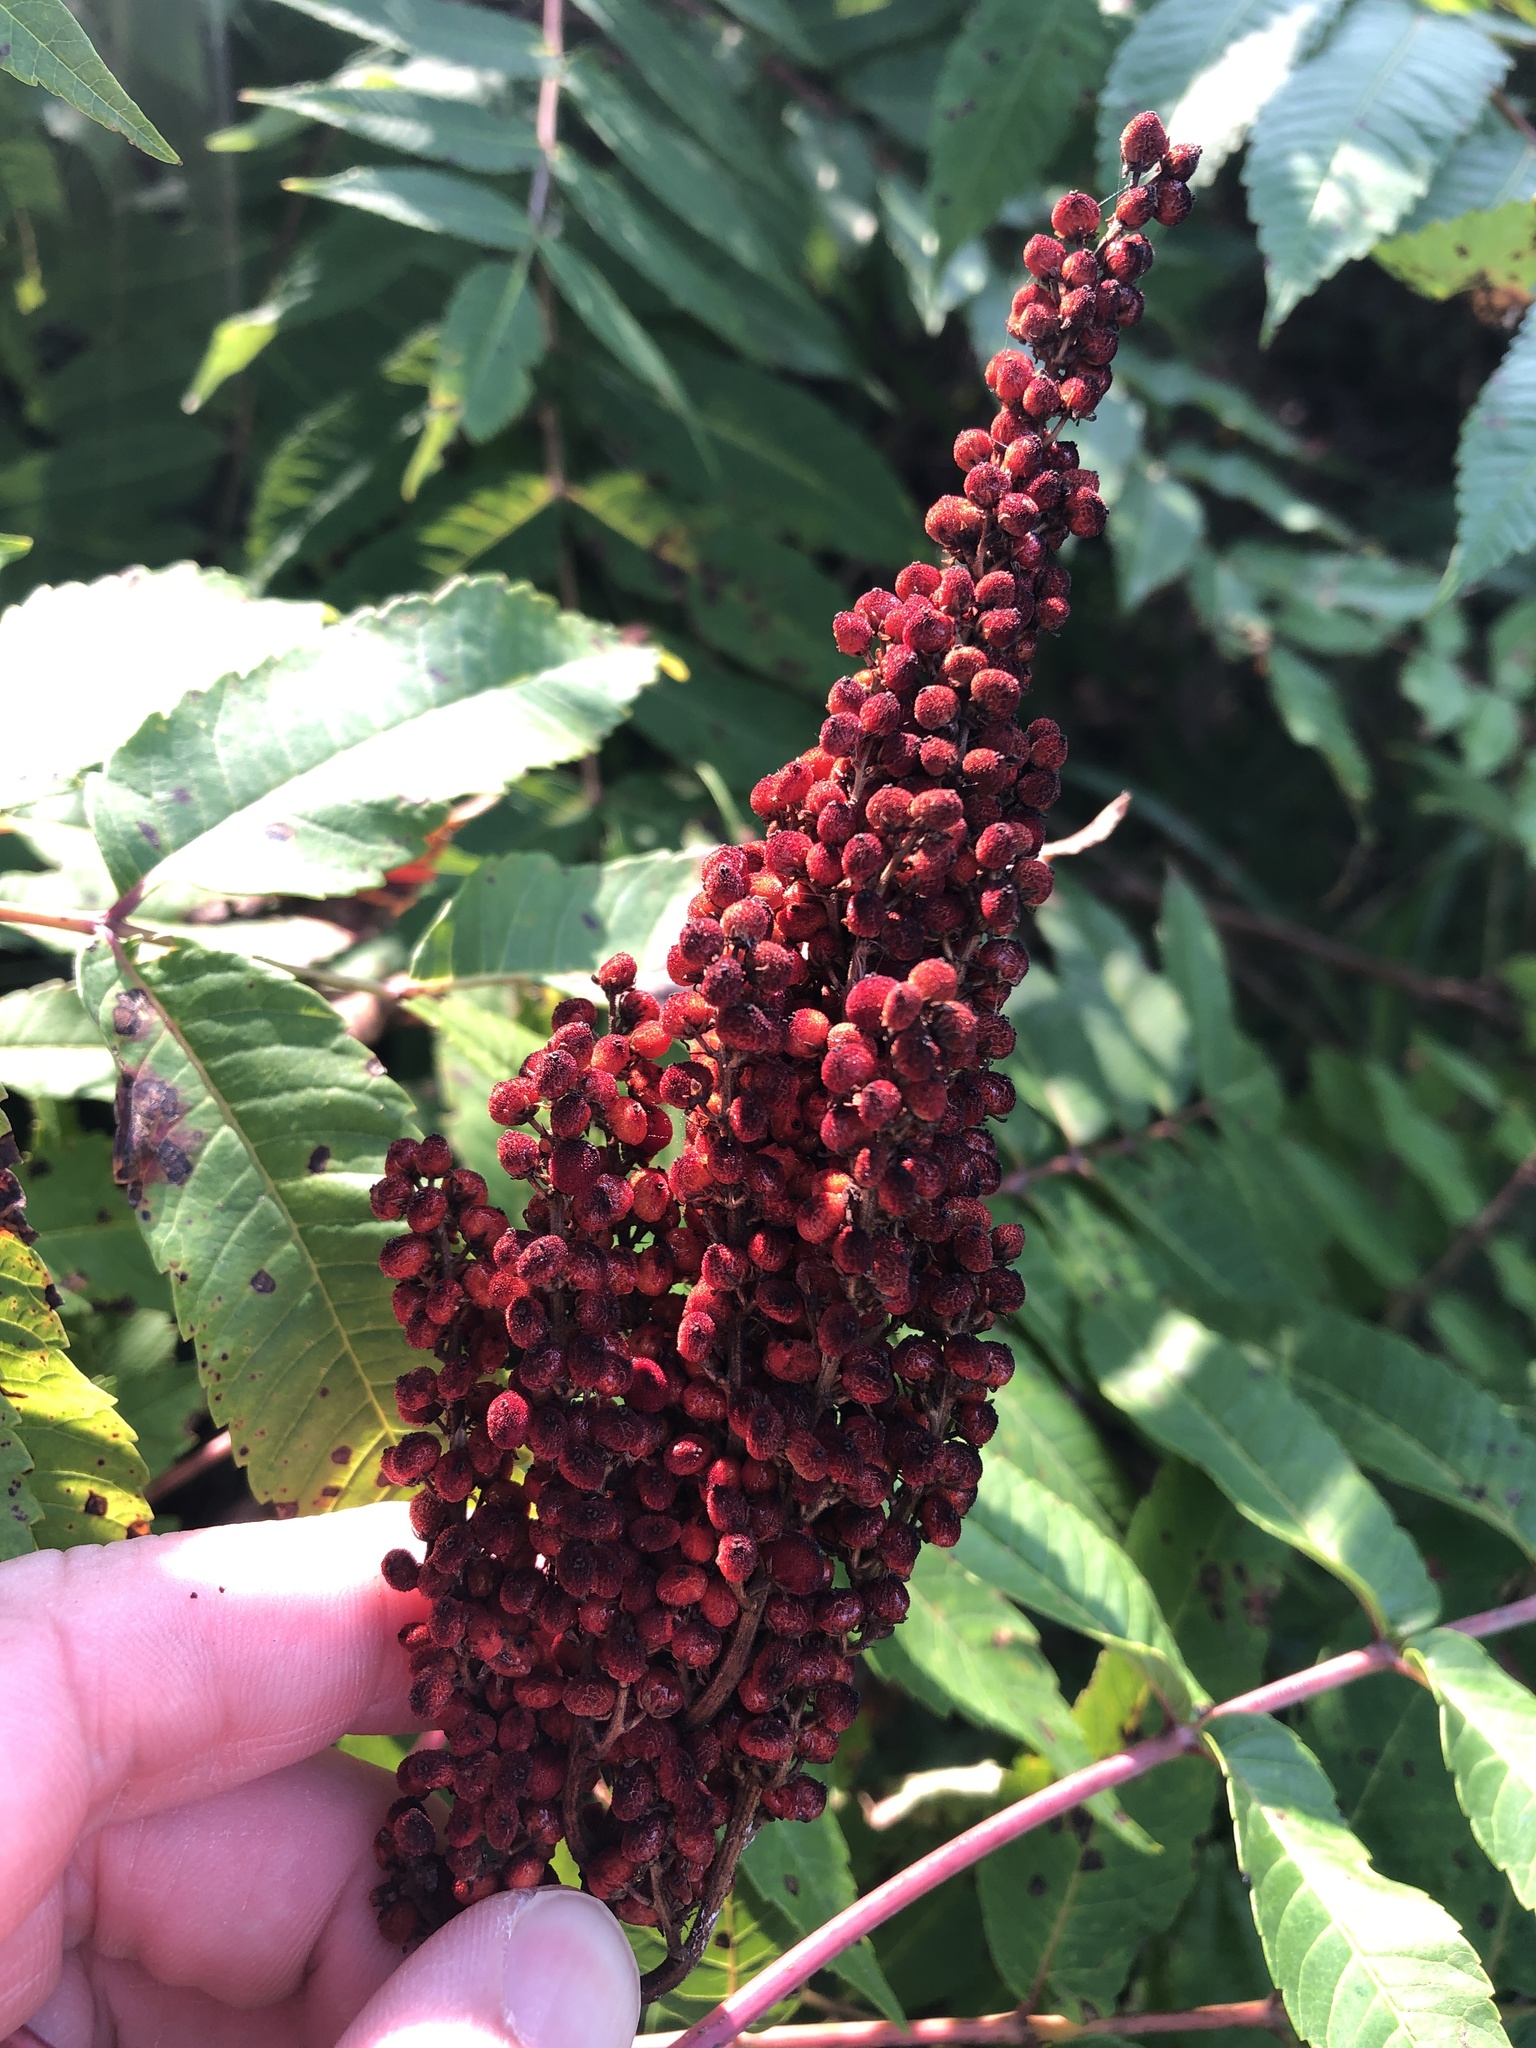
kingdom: Plantae
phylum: Tracheophyta
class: Magnoliopsida
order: Sapindales
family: Anacardiaceae
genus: Rhus
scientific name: Rhus glabra
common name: Scarlet sumac
